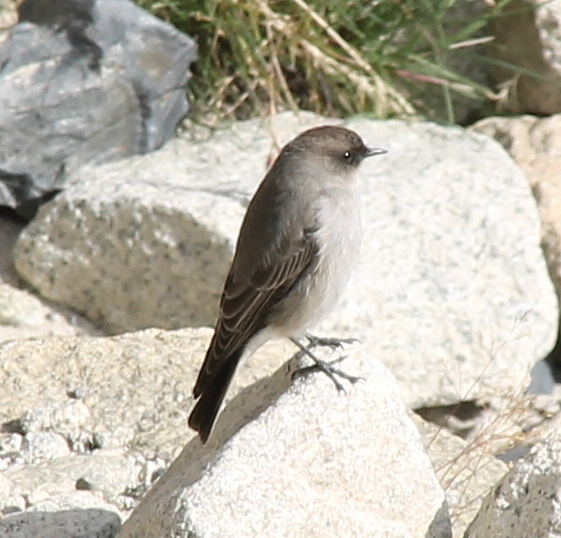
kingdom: Animalia
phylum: Chordata
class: Aves
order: Passeriformes
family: Tyrannidae
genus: Muscisaxicola
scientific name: Muscisaxicola maclovianus
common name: Dark-faced ground tyrant
